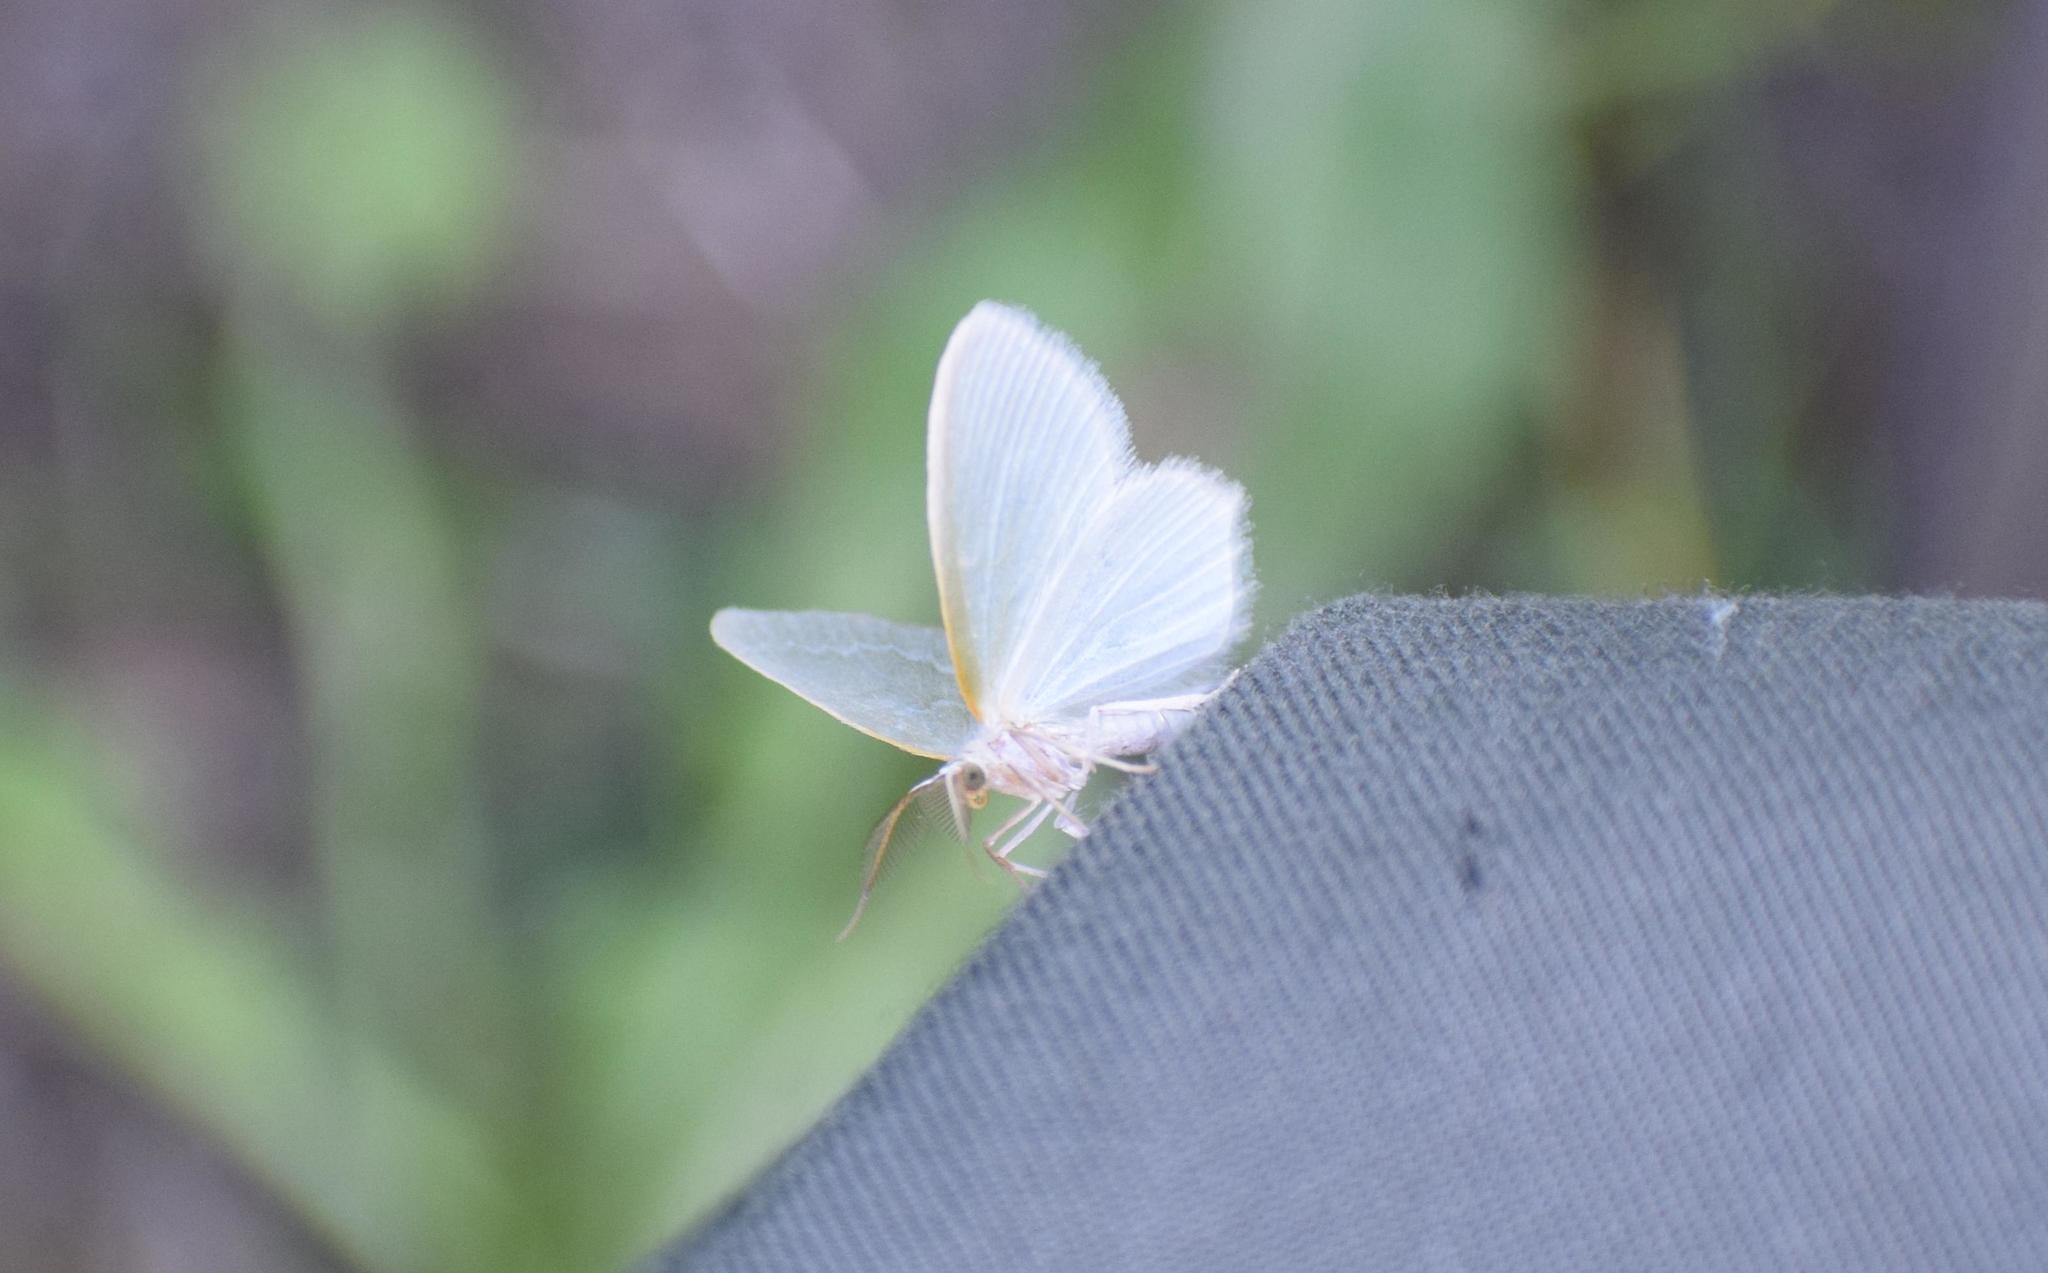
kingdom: Animalia
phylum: Arthropoda
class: Insecta
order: Lepidoptera
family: Geometridae
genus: Jodis
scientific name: Jodis putata
